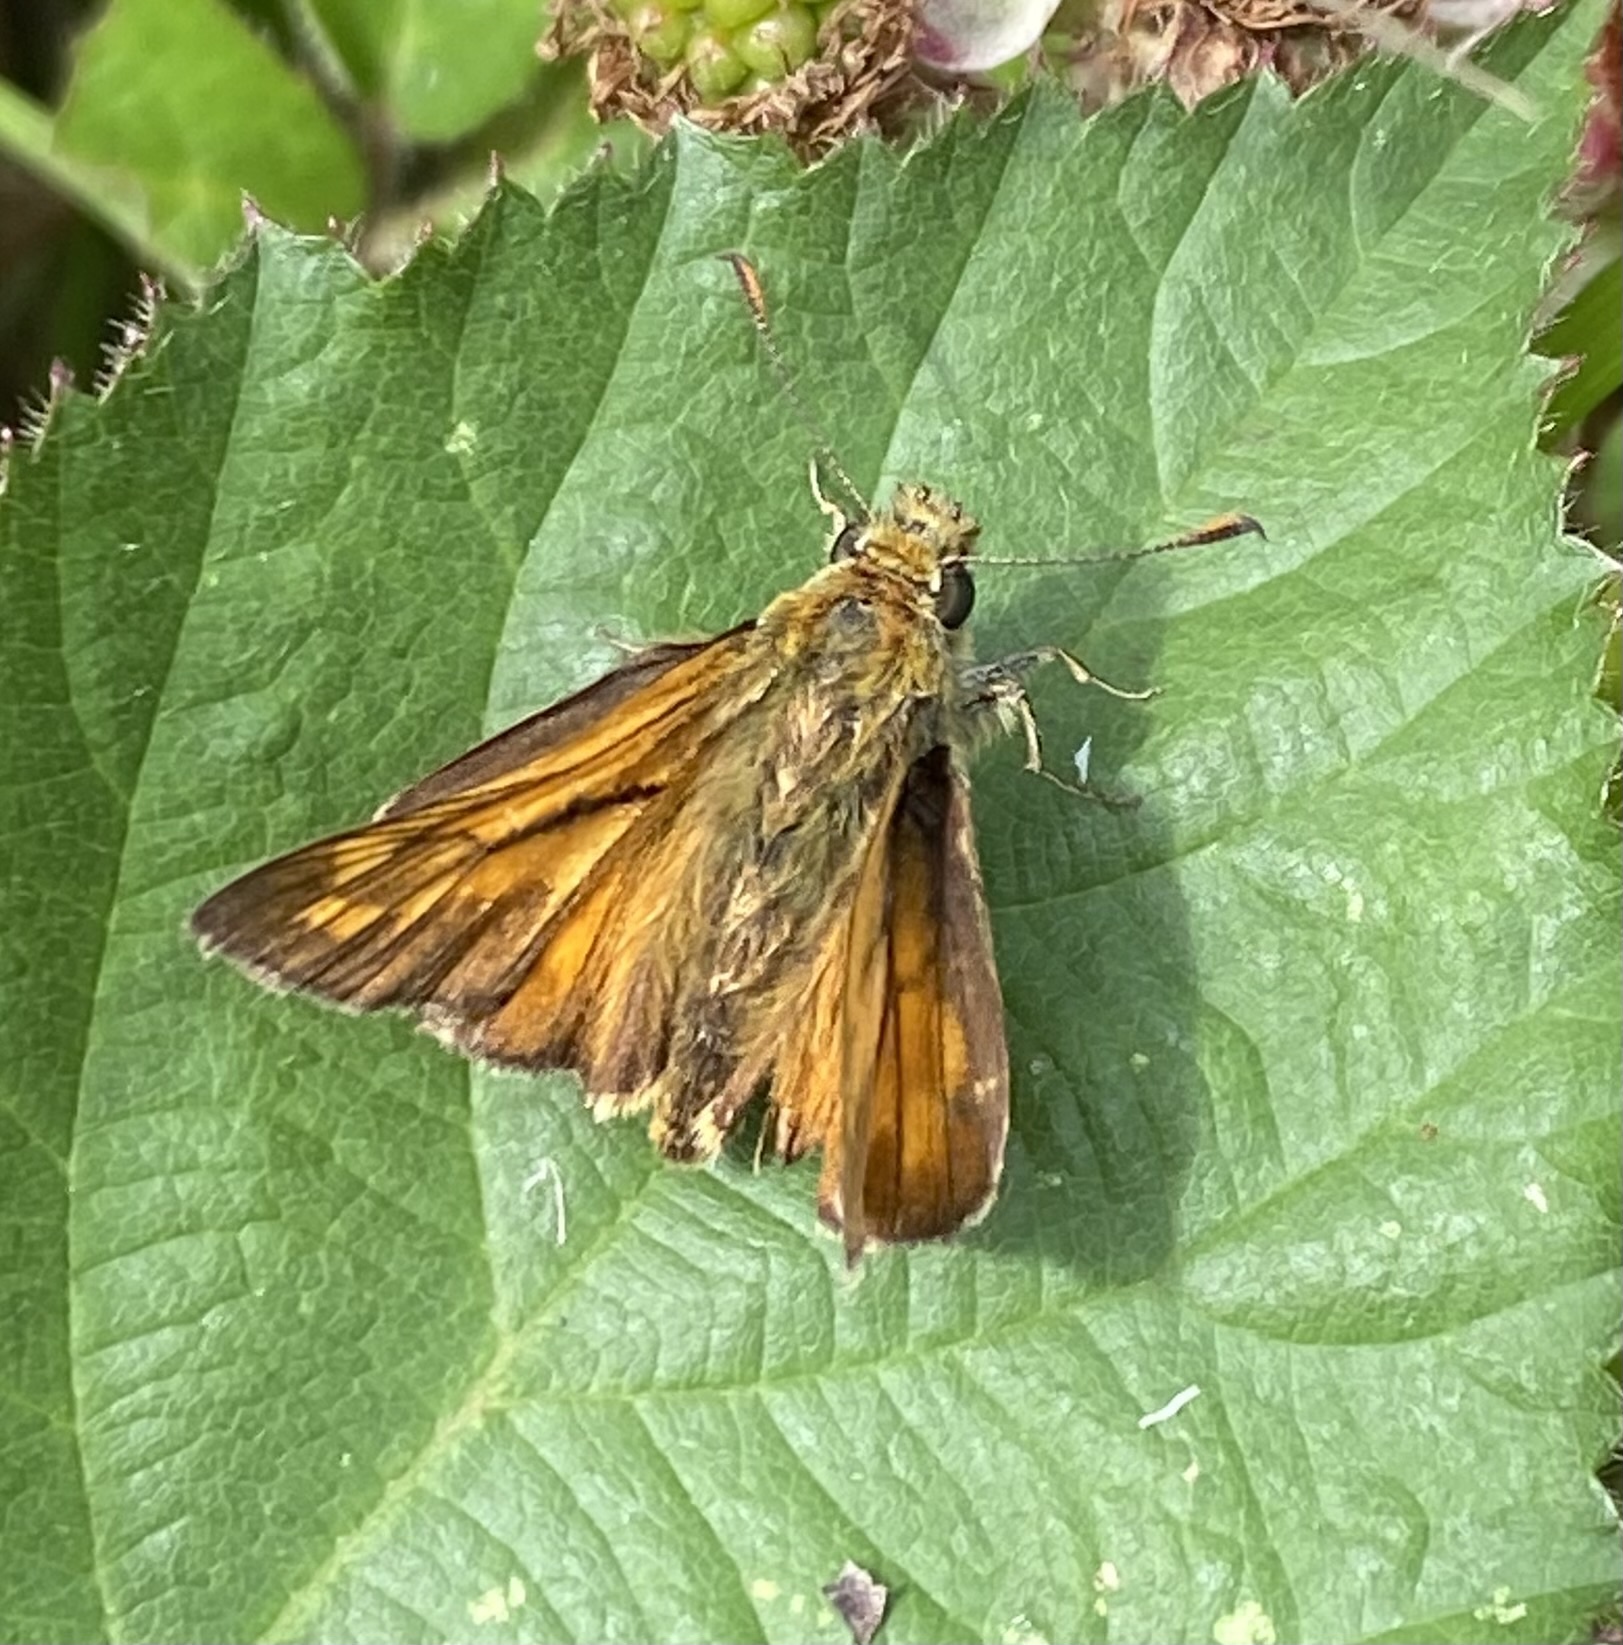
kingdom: Animalia
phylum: Arthropoda
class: Insecta
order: Lepidoptera
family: Hesperiidae
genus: Ochlodes
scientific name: Ochlodes venata
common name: Large skipper
